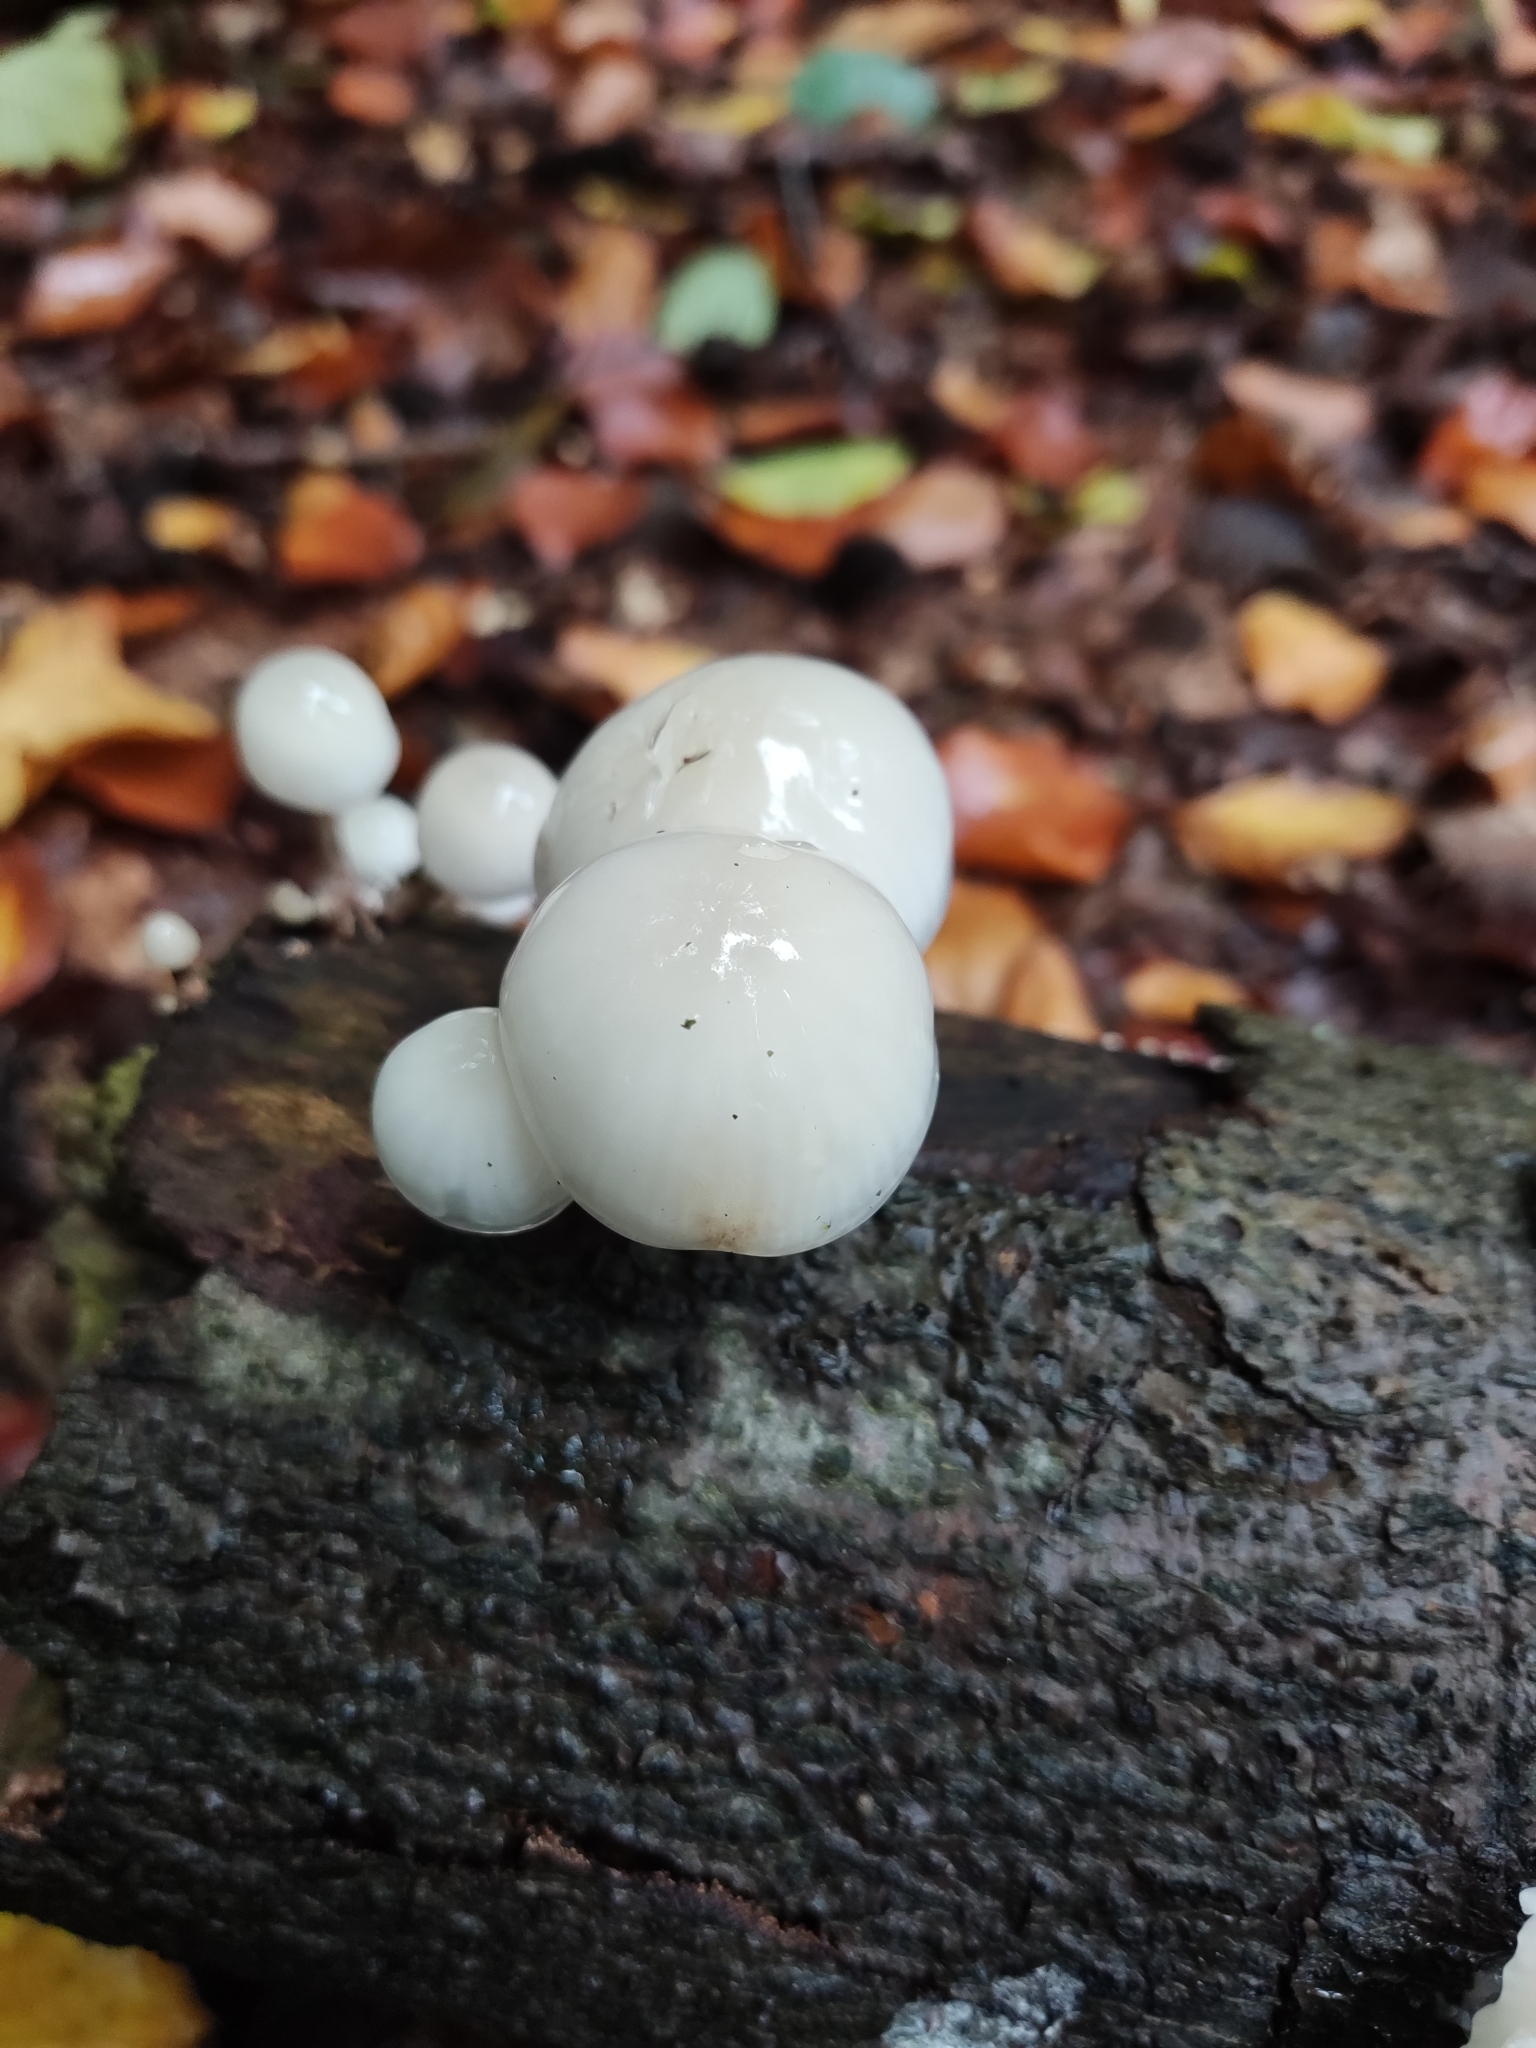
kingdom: Fungi
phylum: Basidiomycota
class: Agaricomycetes
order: Agaricales
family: Physalacriaceae
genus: Mucidula
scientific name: Mucidula mucida
